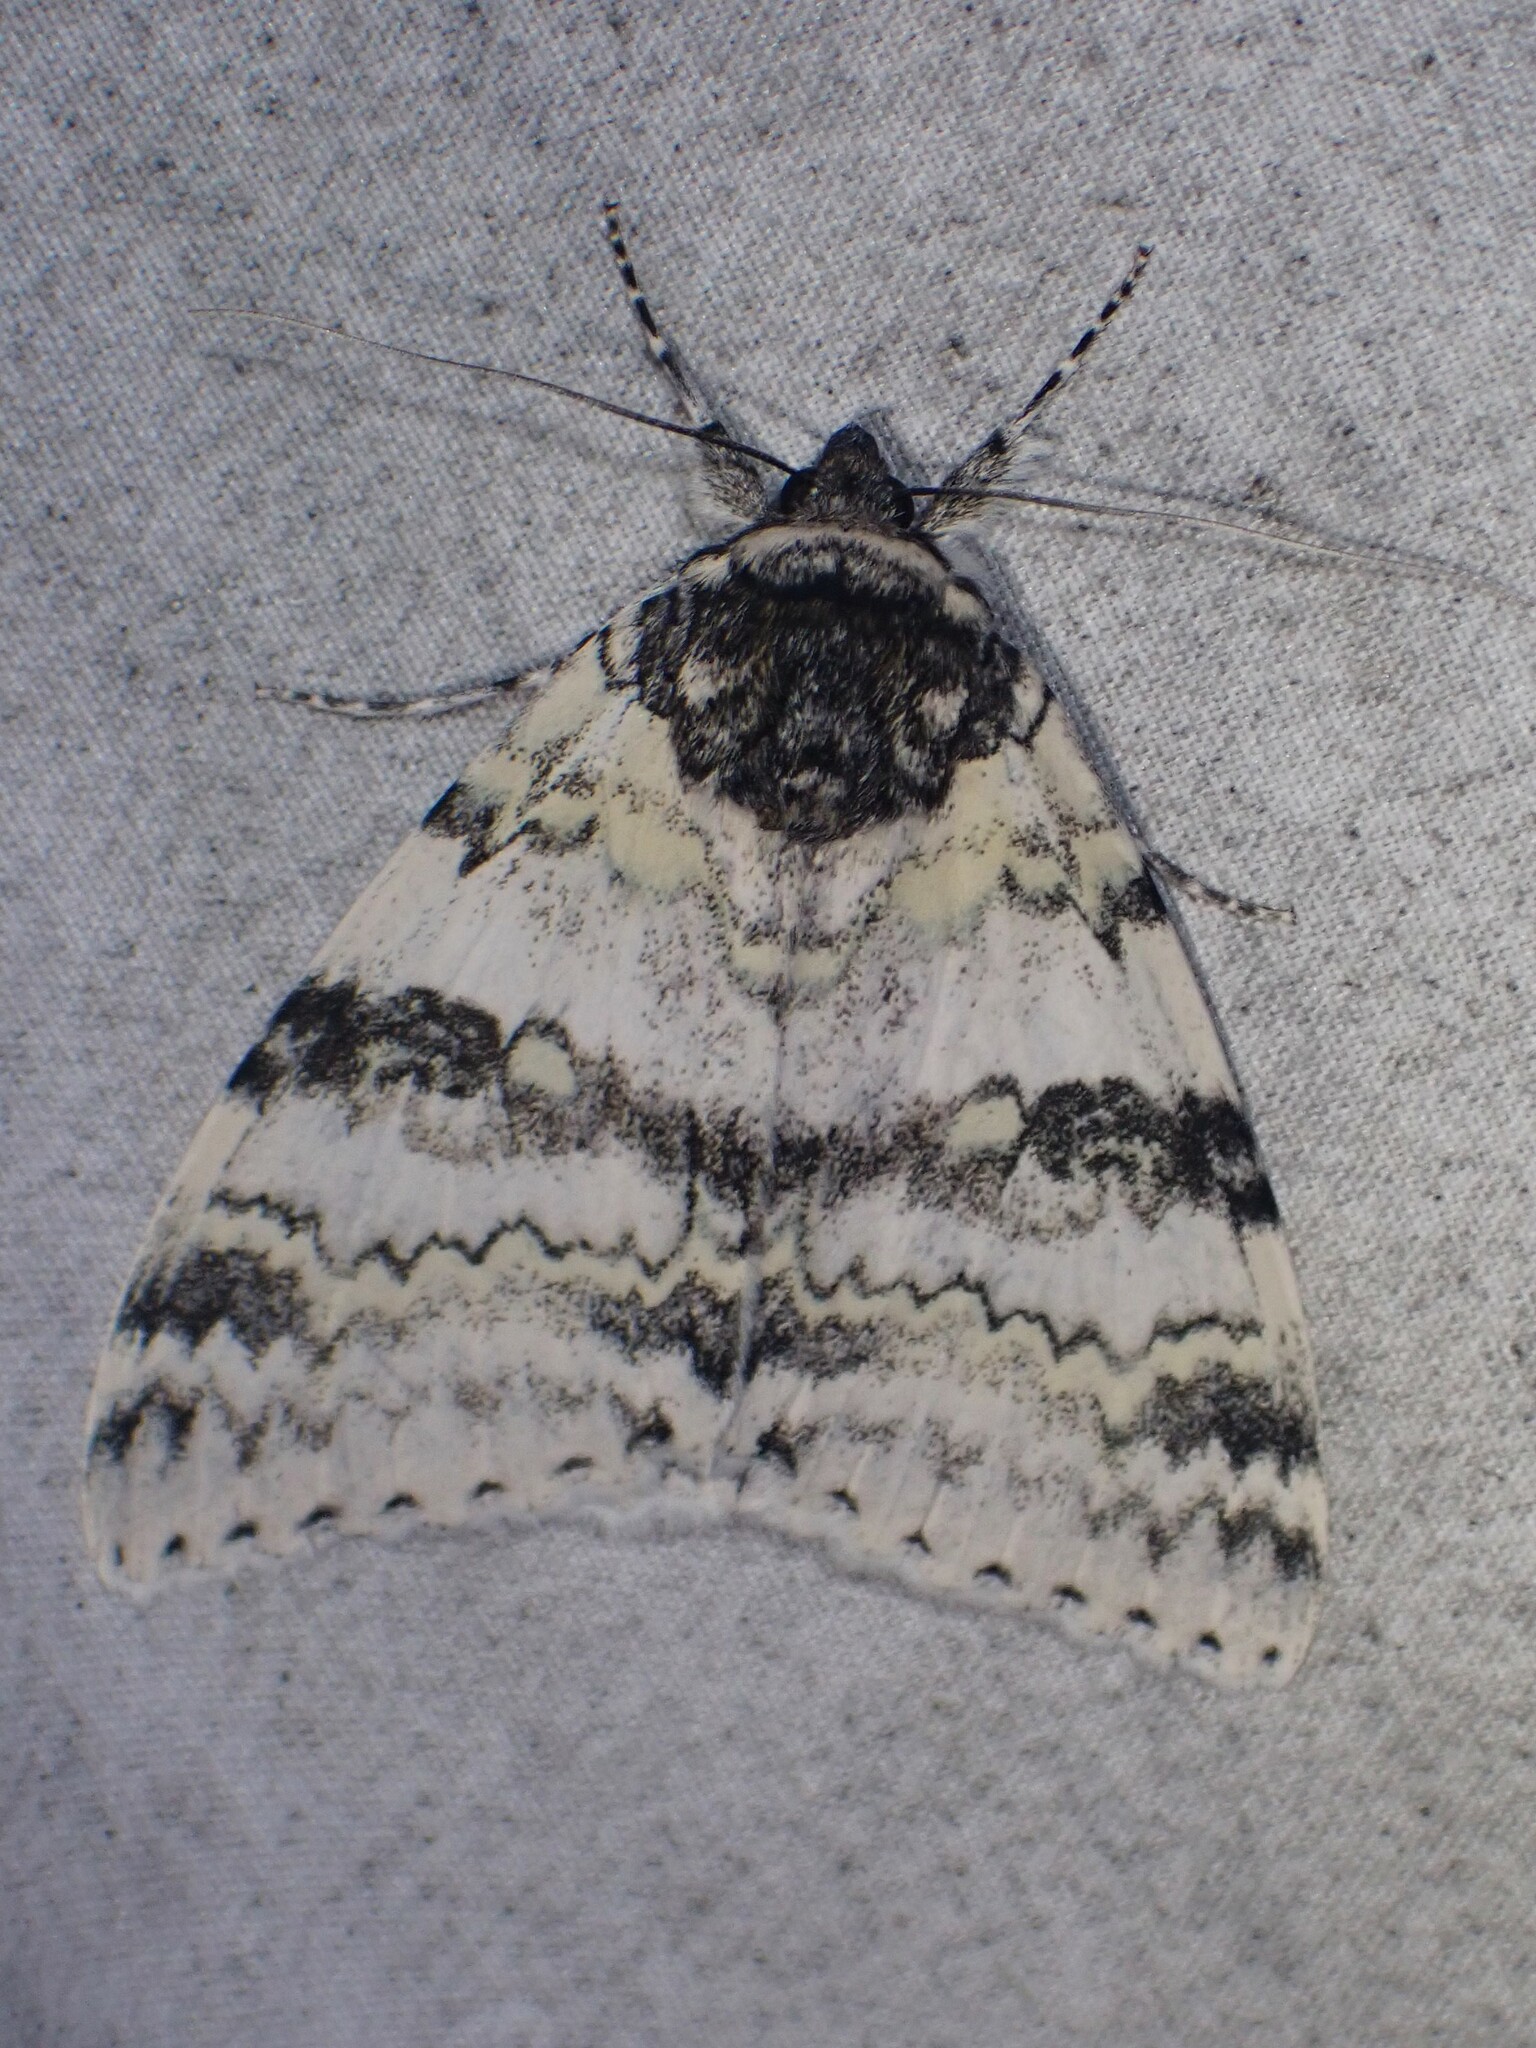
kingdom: Animalia
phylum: Arthropoda
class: Insecta
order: Lepidoptera
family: Erebidae
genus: Catocala
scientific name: Catocala relicta
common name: White underwing
